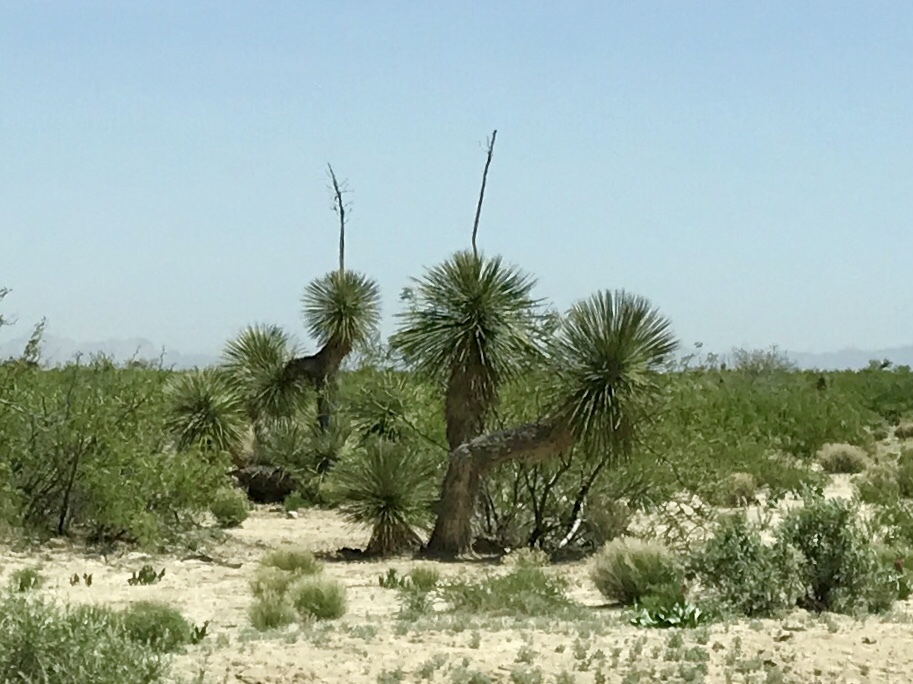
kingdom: Plantae
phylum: Tracheophyta
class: Liliopsida
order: Asparagales
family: Asparagaceae
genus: Yucca
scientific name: Yucca elata
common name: Palmella
